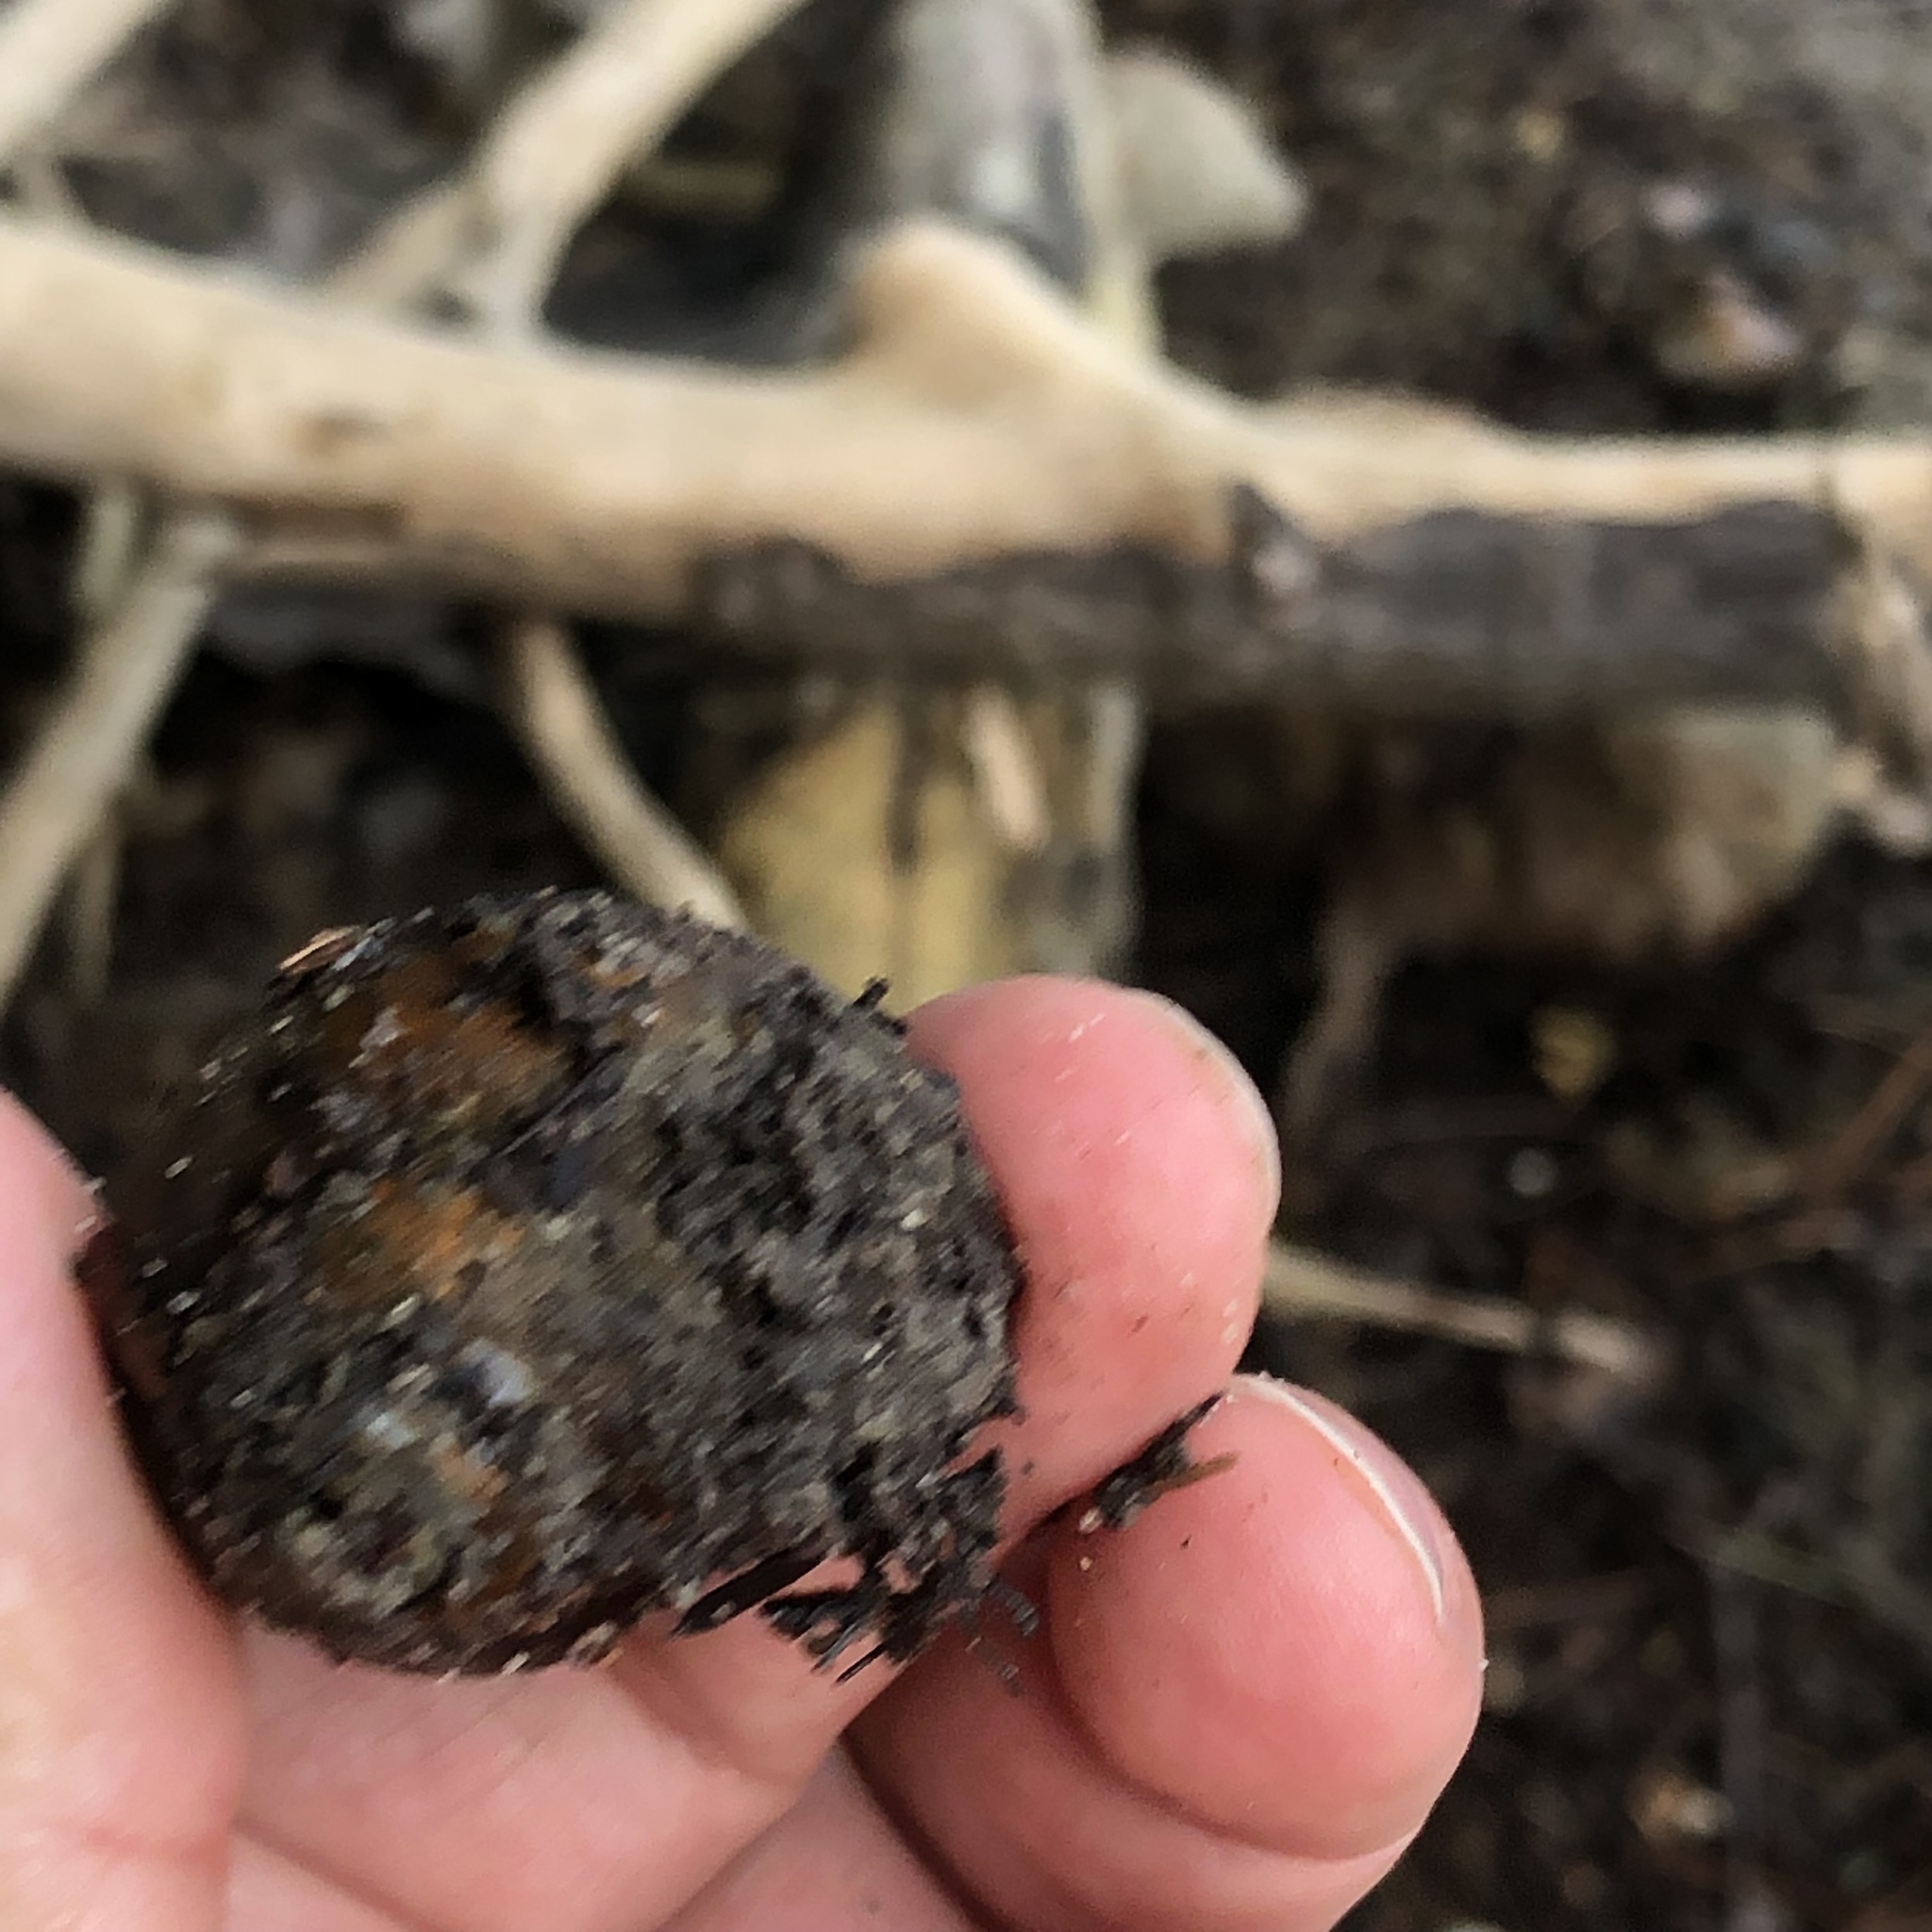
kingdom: Animalia
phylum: Mollusca
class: Gastropoda
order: Architaenioglossa
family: Viviparidae
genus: Cipangopaludina
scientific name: Cipangopaludina chinensis
